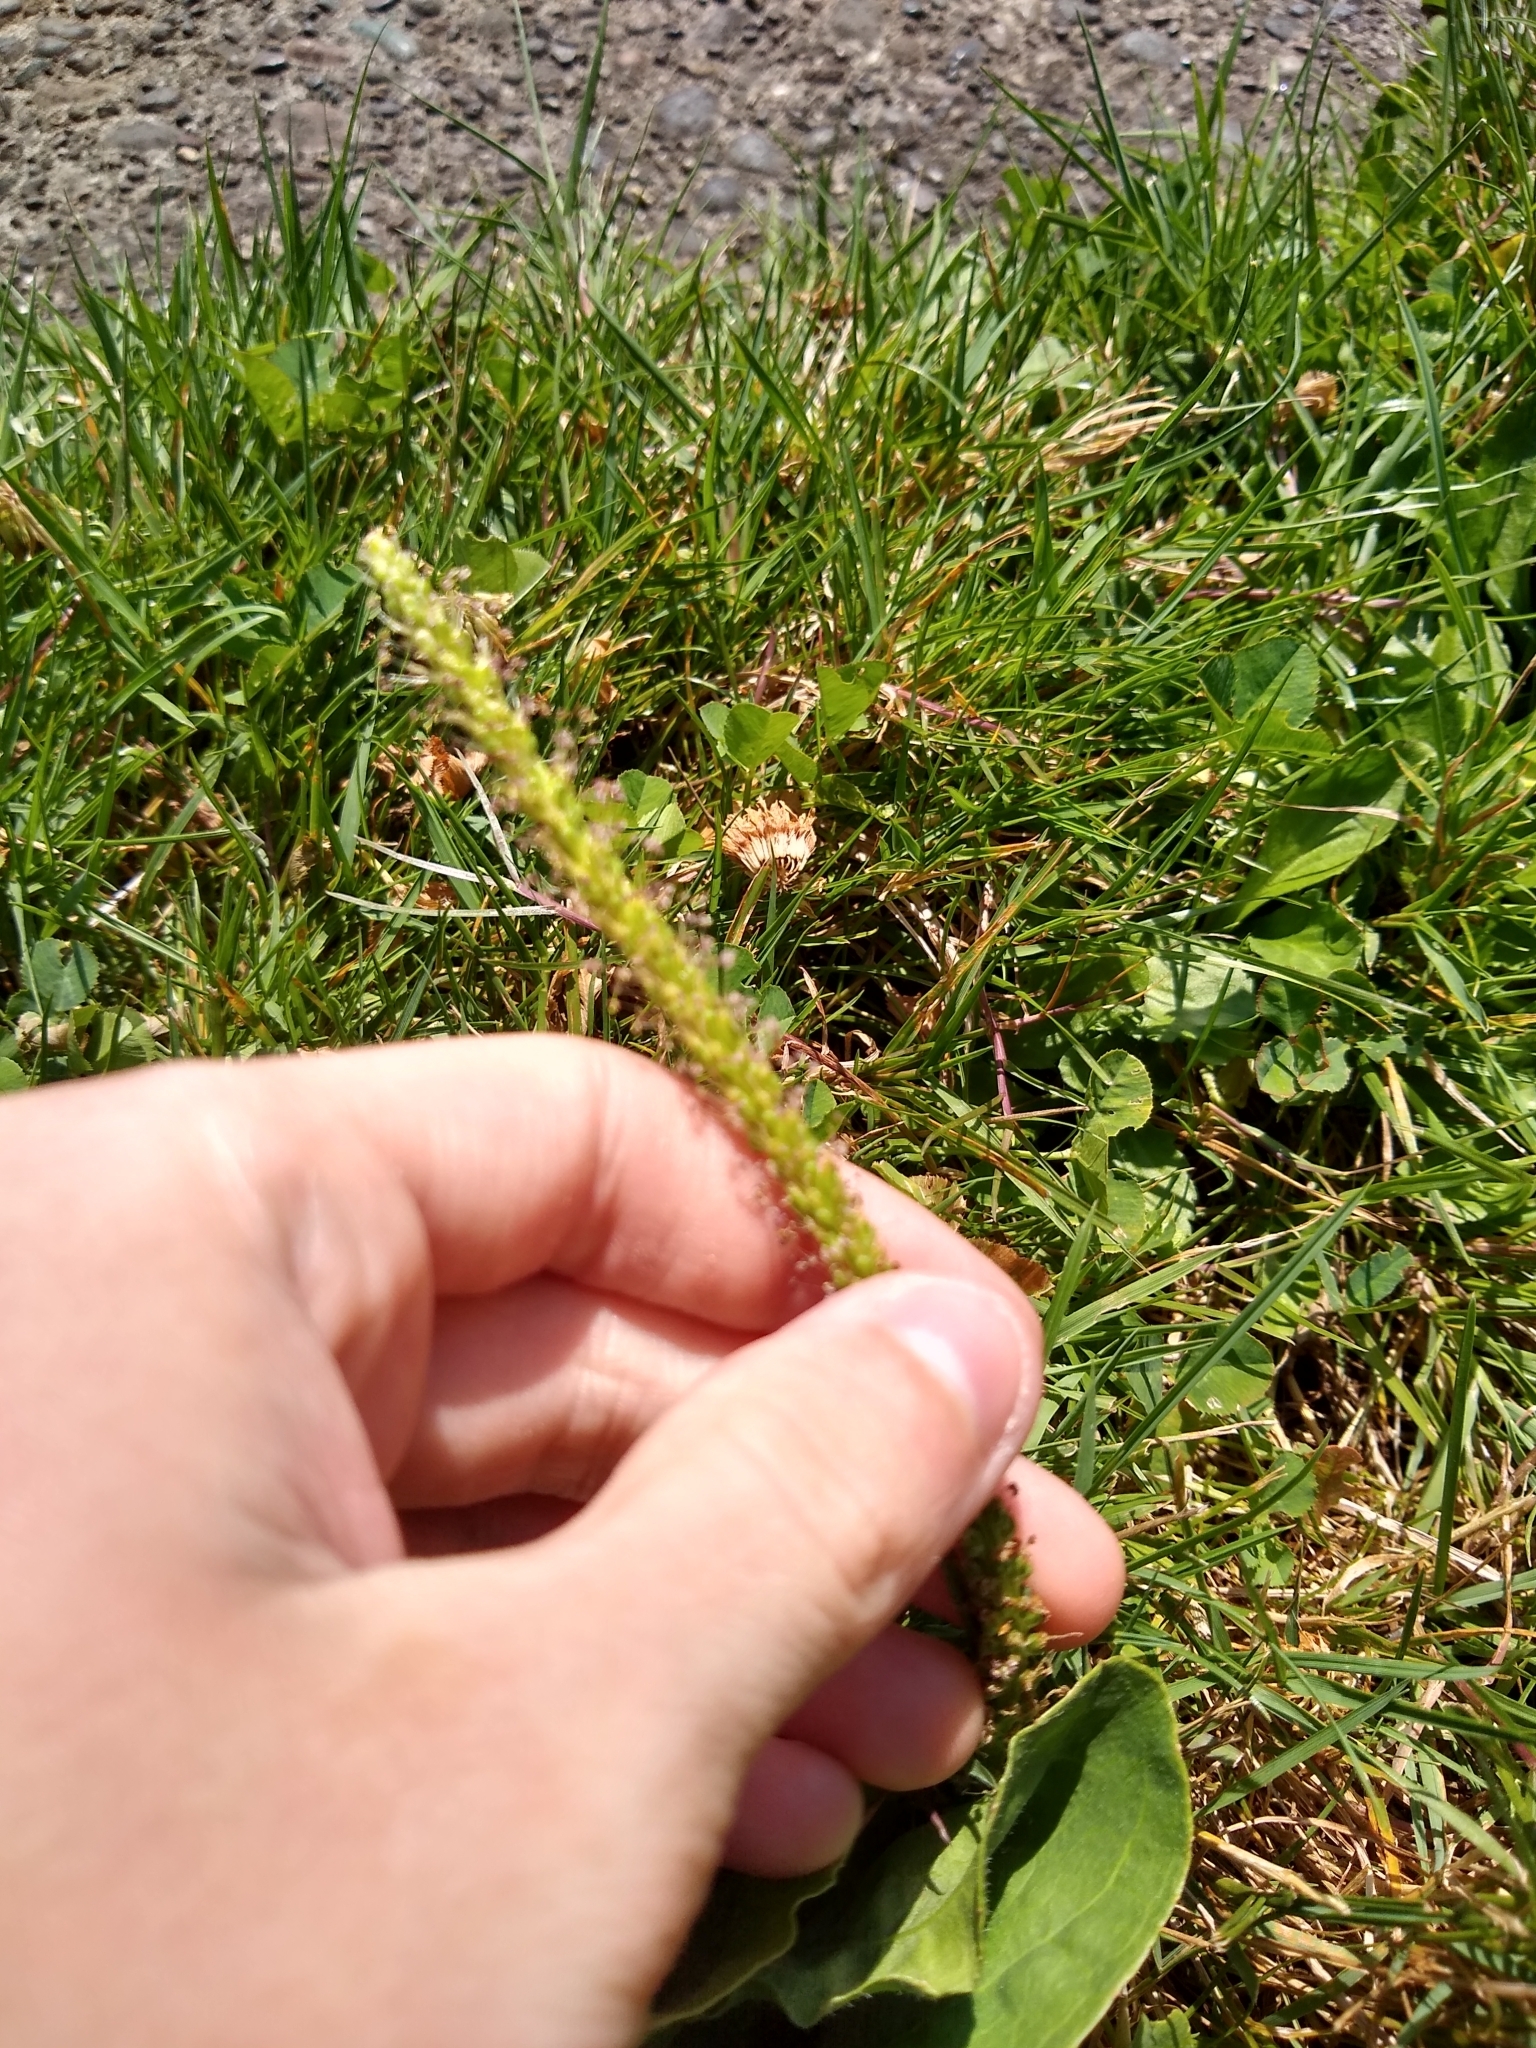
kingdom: Plantae
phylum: Tracheophyta
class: Magnoliopsida
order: Lamiales
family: Plantaginaceae
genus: Plantago
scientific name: Plantago major
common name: Common plantain
